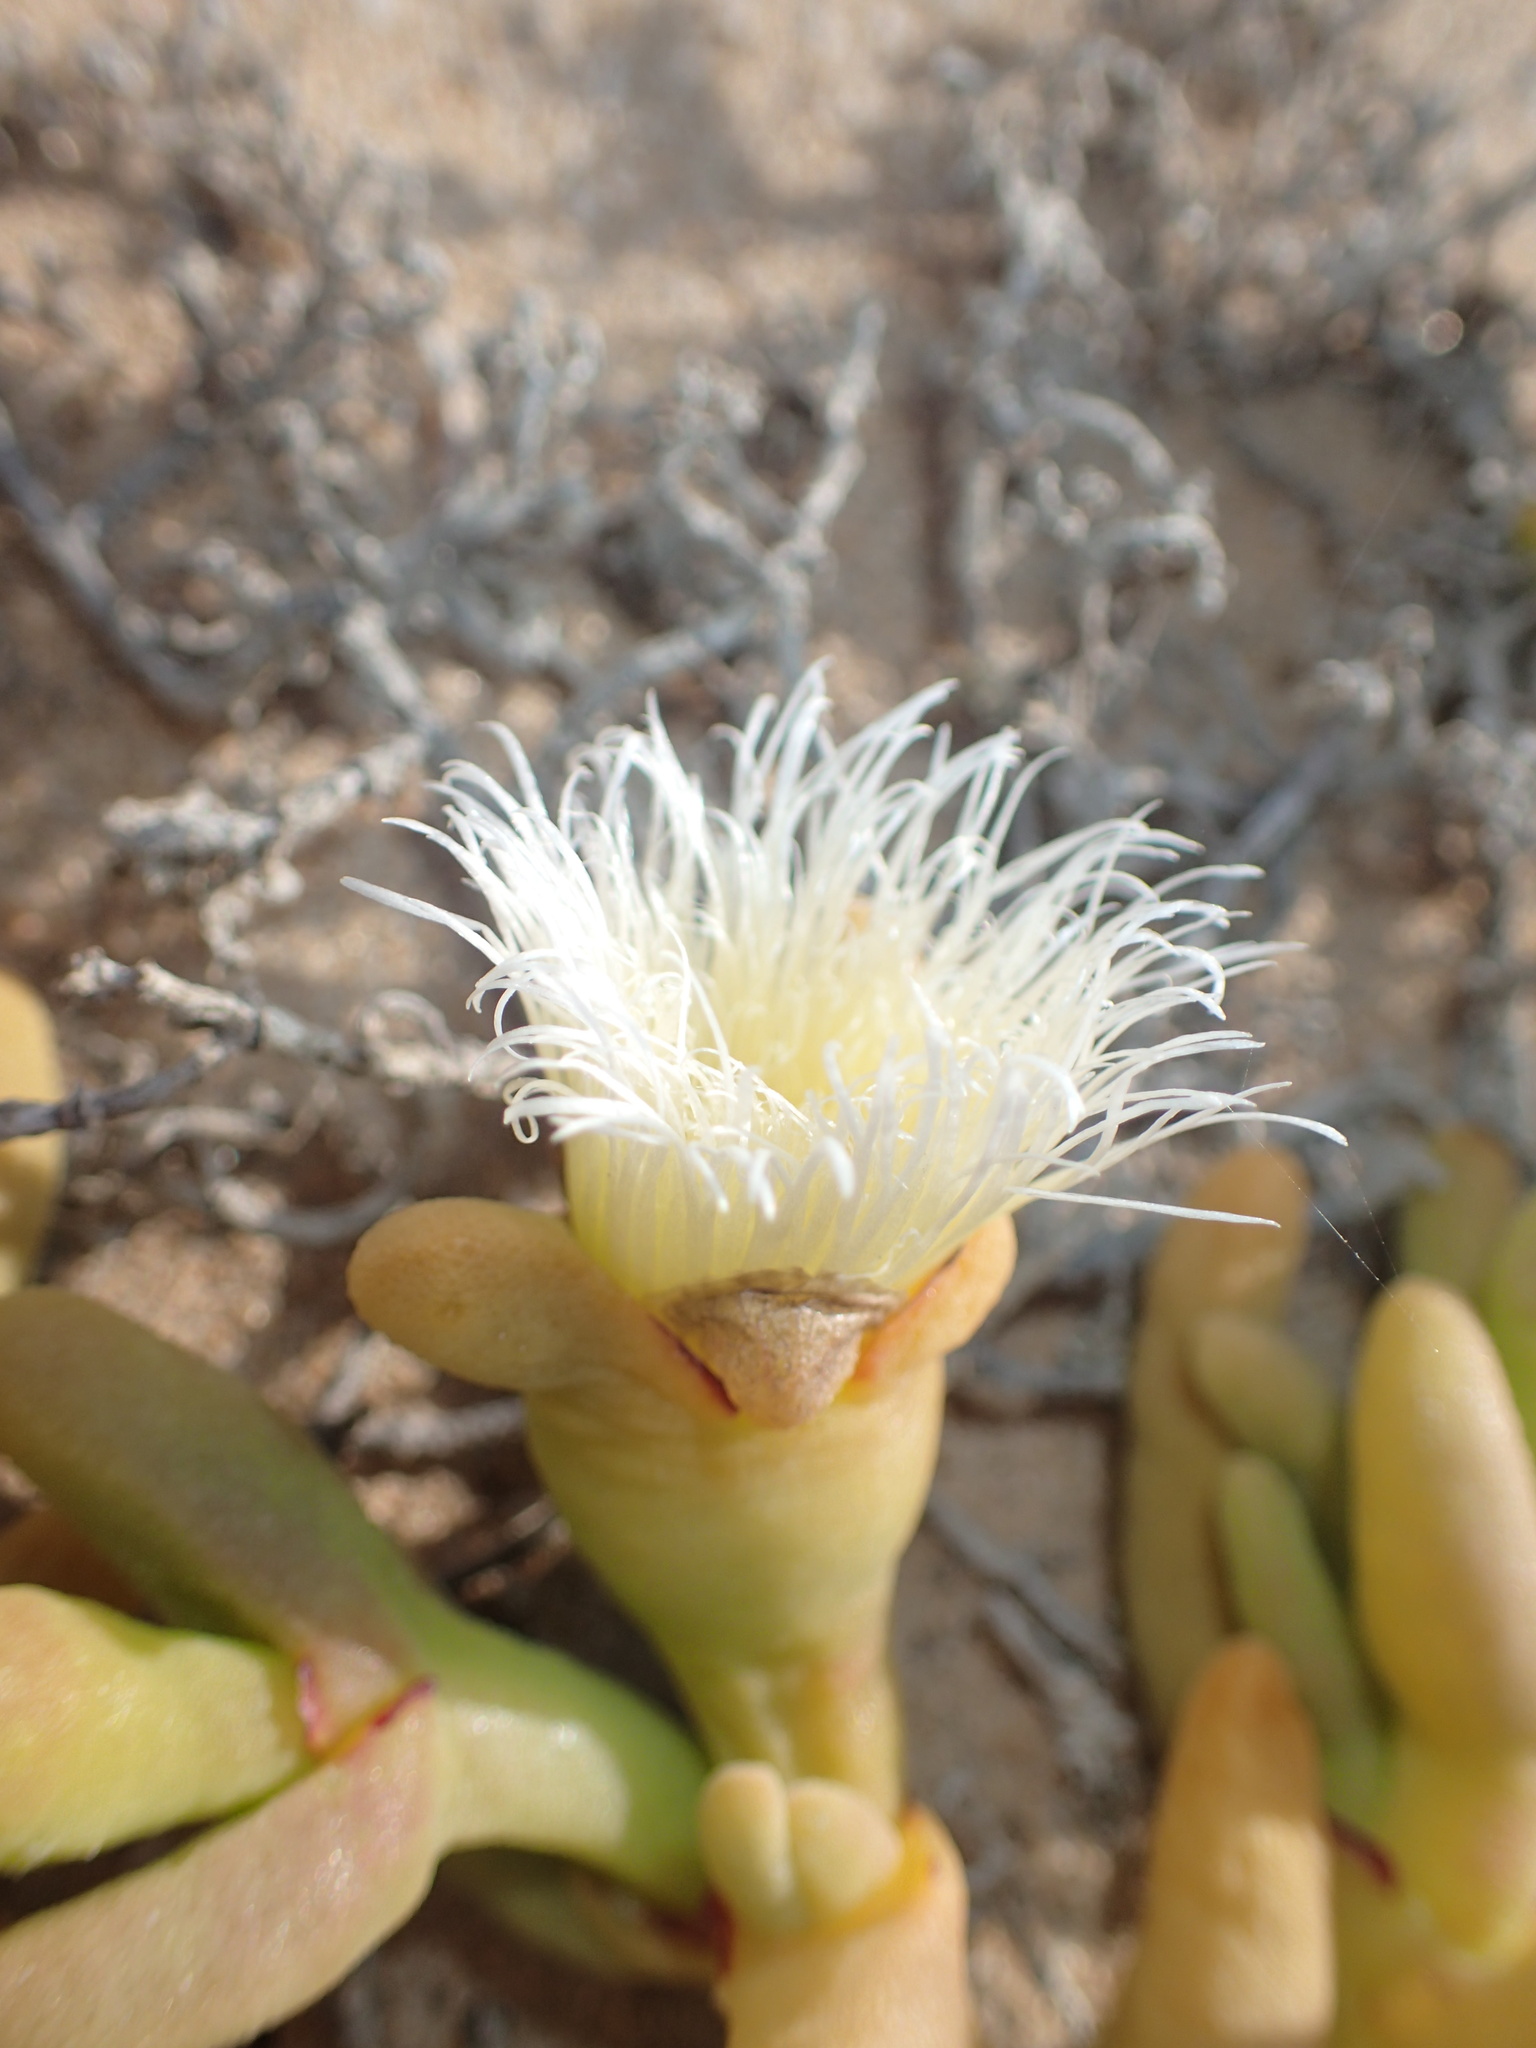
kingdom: Plantae
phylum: Tracheophyta
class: Magnoliopsida
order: Caryophyllales
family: Aizoaceae
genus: Mesembryanthemum
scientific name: Mesembryanthemum hypertrophicum
